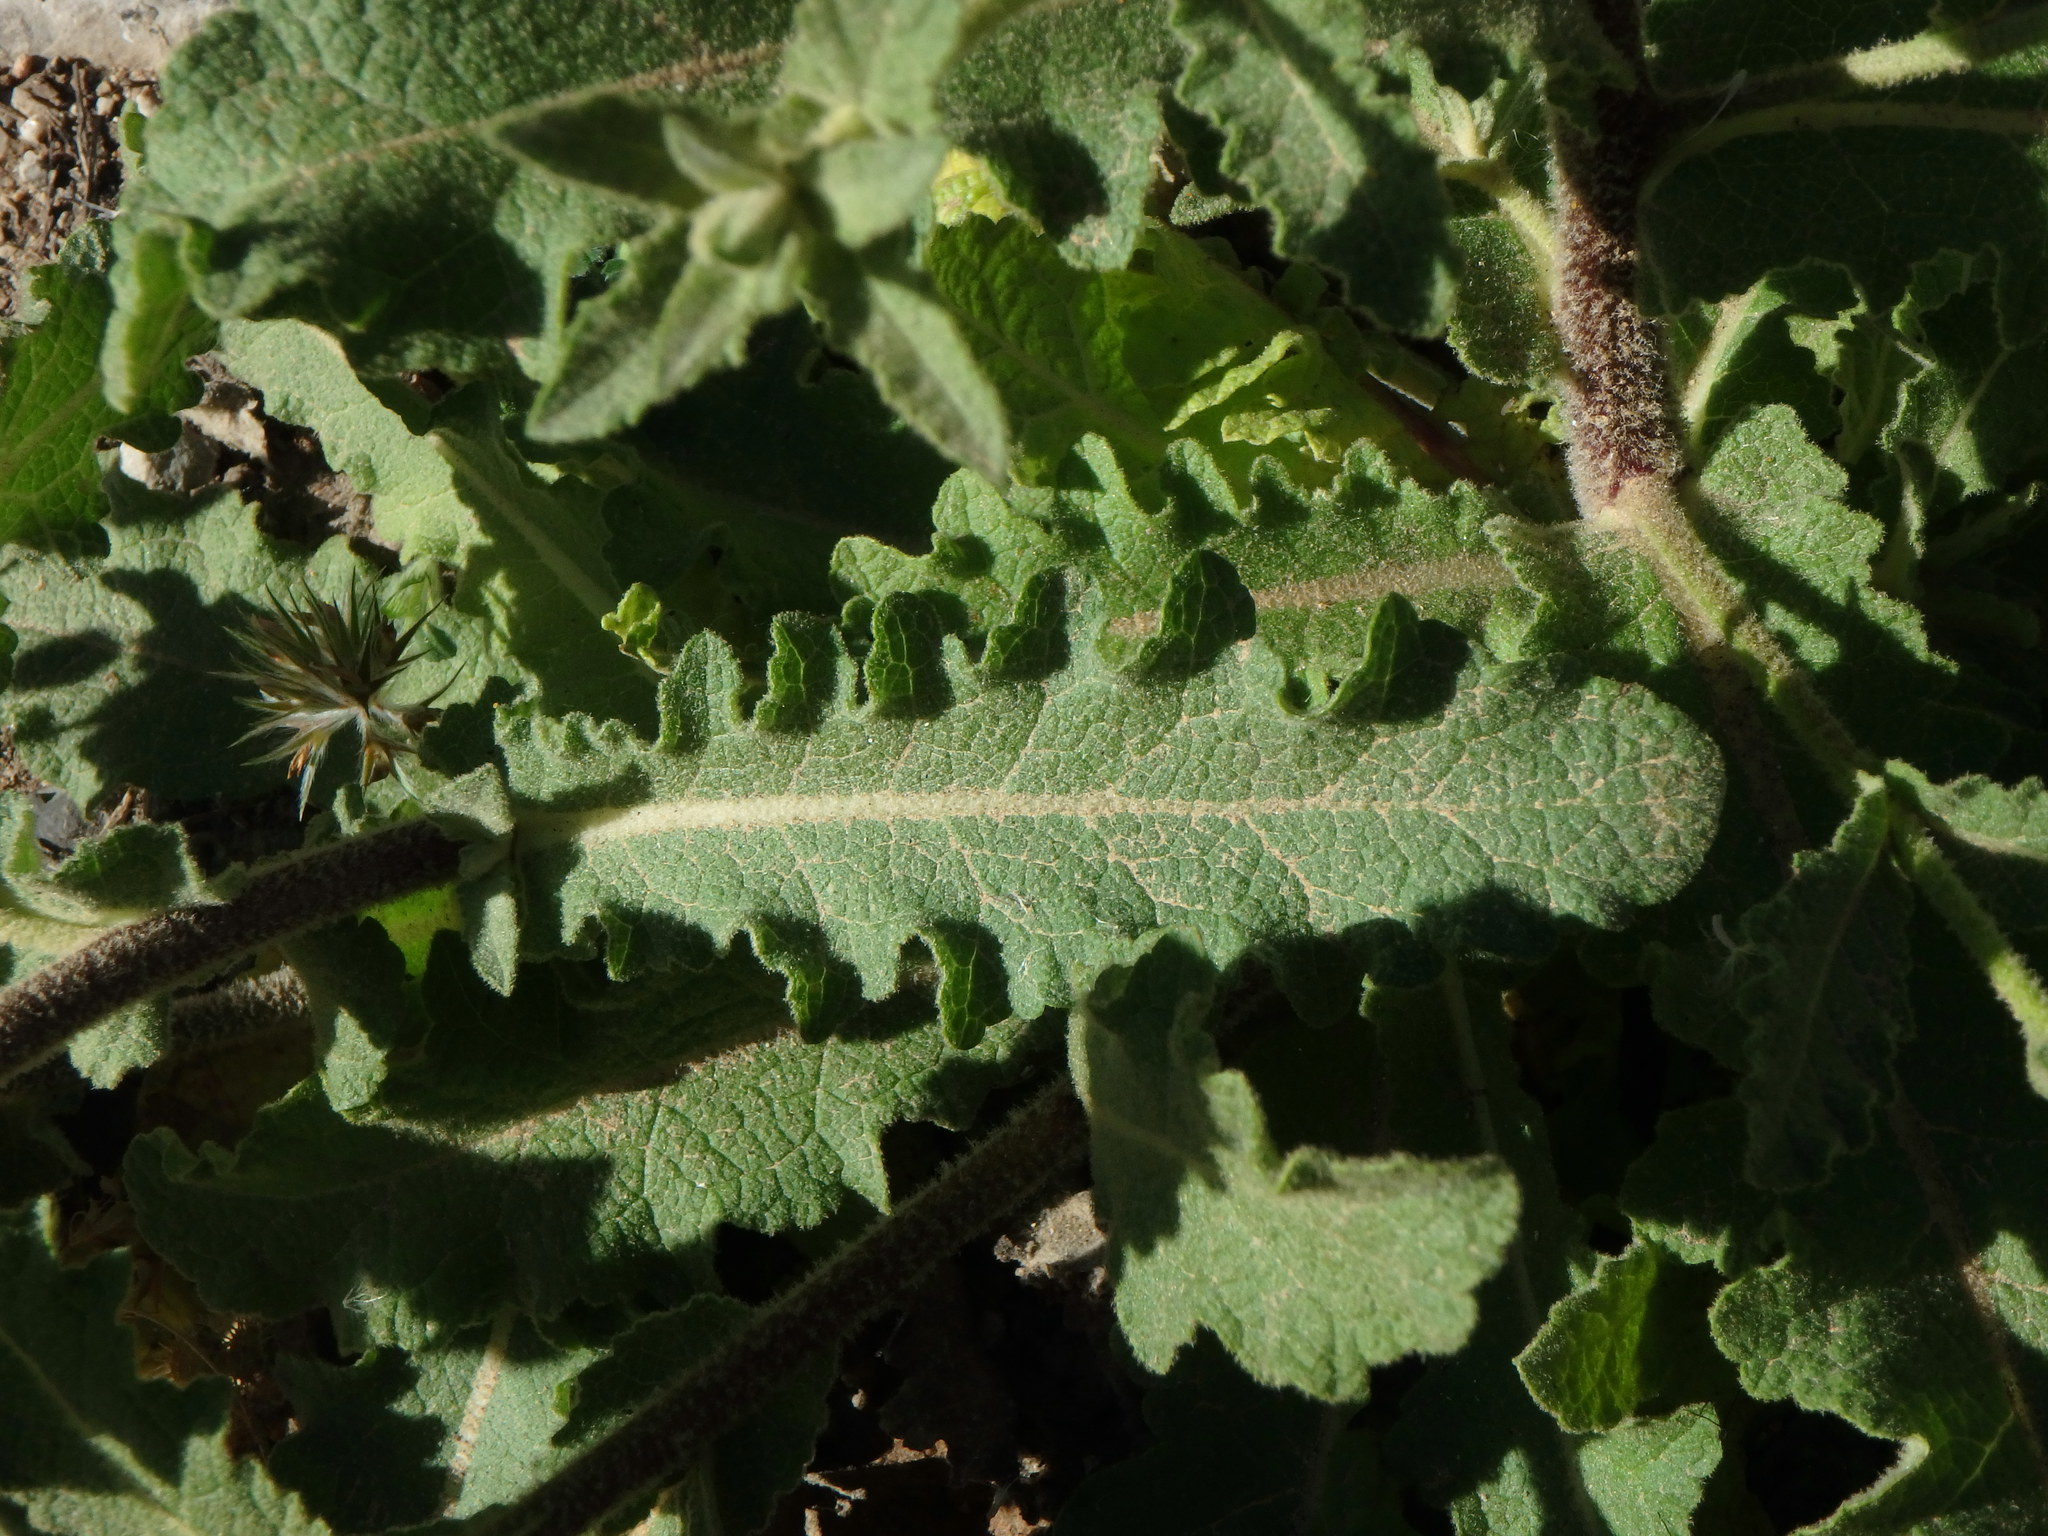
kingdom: Plantae
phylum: Tracheophyta
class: Magnoliopsida
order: Lamiales
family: Scrophulariaceae
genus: Verbascum
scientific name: Verbascum sinuatum
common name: Wavyleaf mullein
